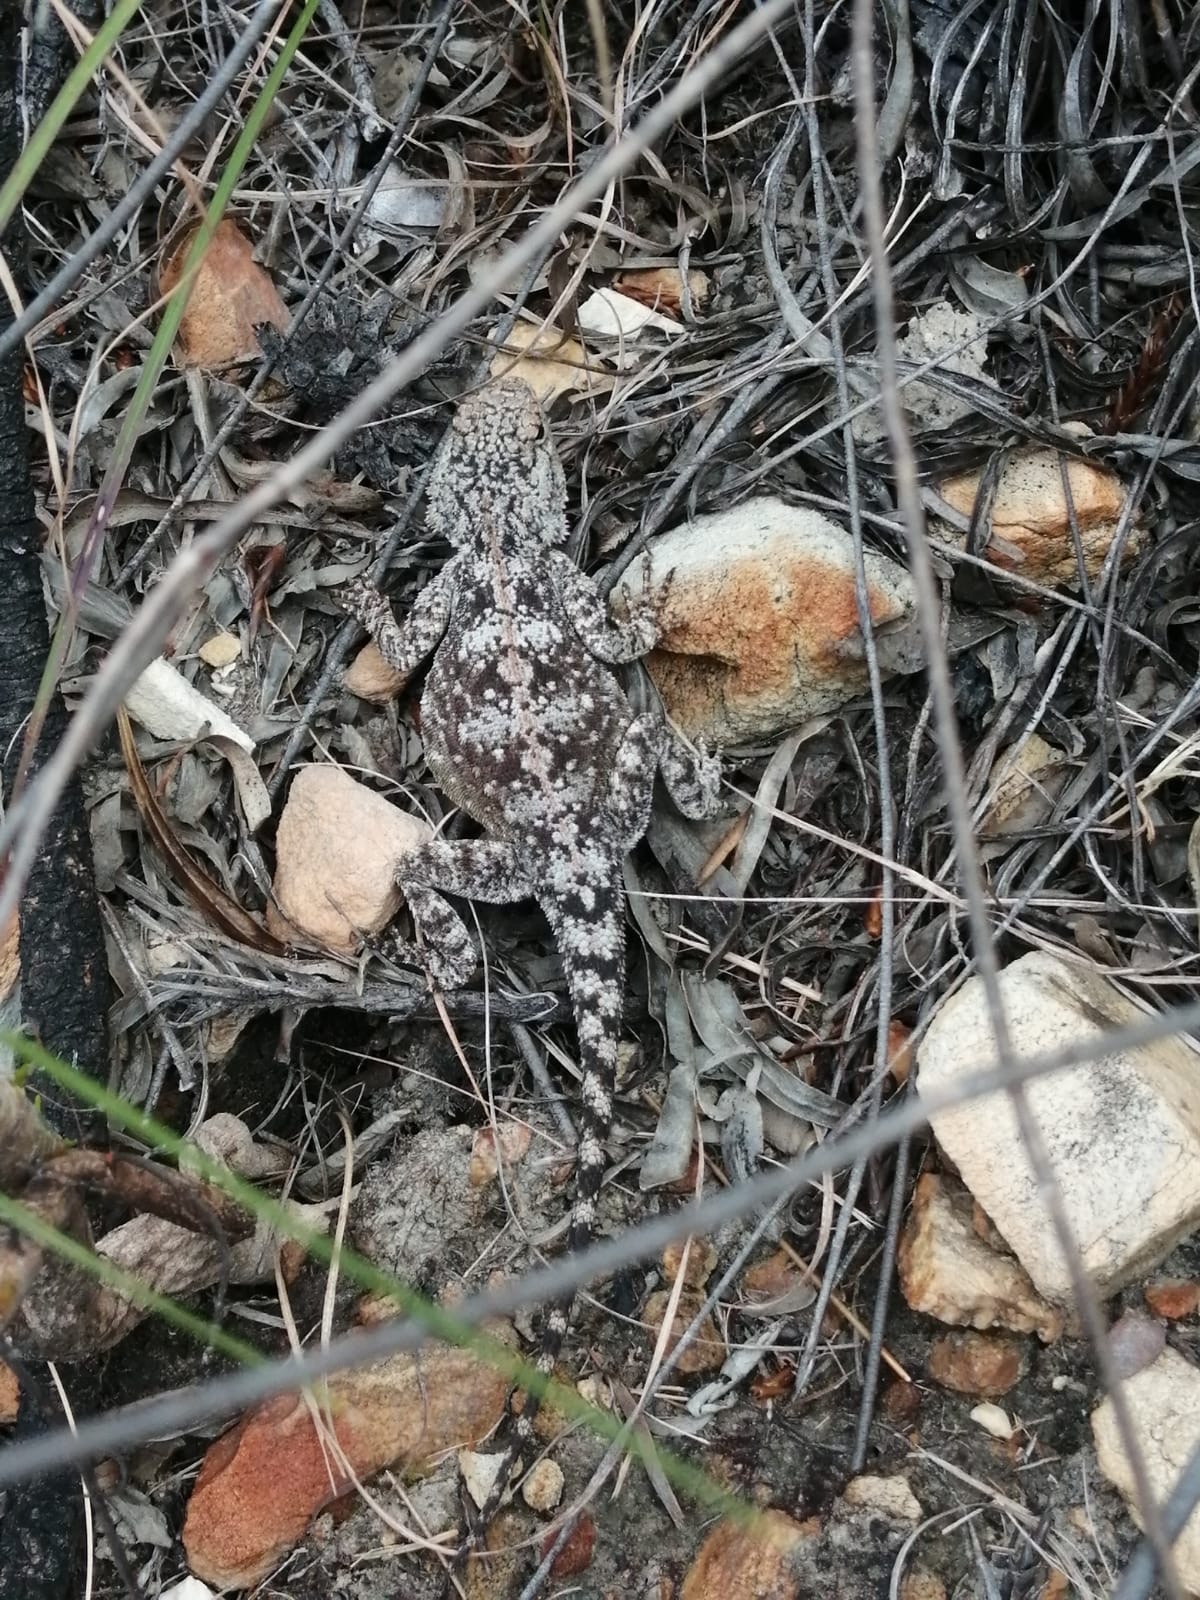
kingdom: Animalia
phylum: Chordata
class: Squamata
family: Agamidae
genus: Agama
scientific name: Agama atra
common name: Southern african rock agama
